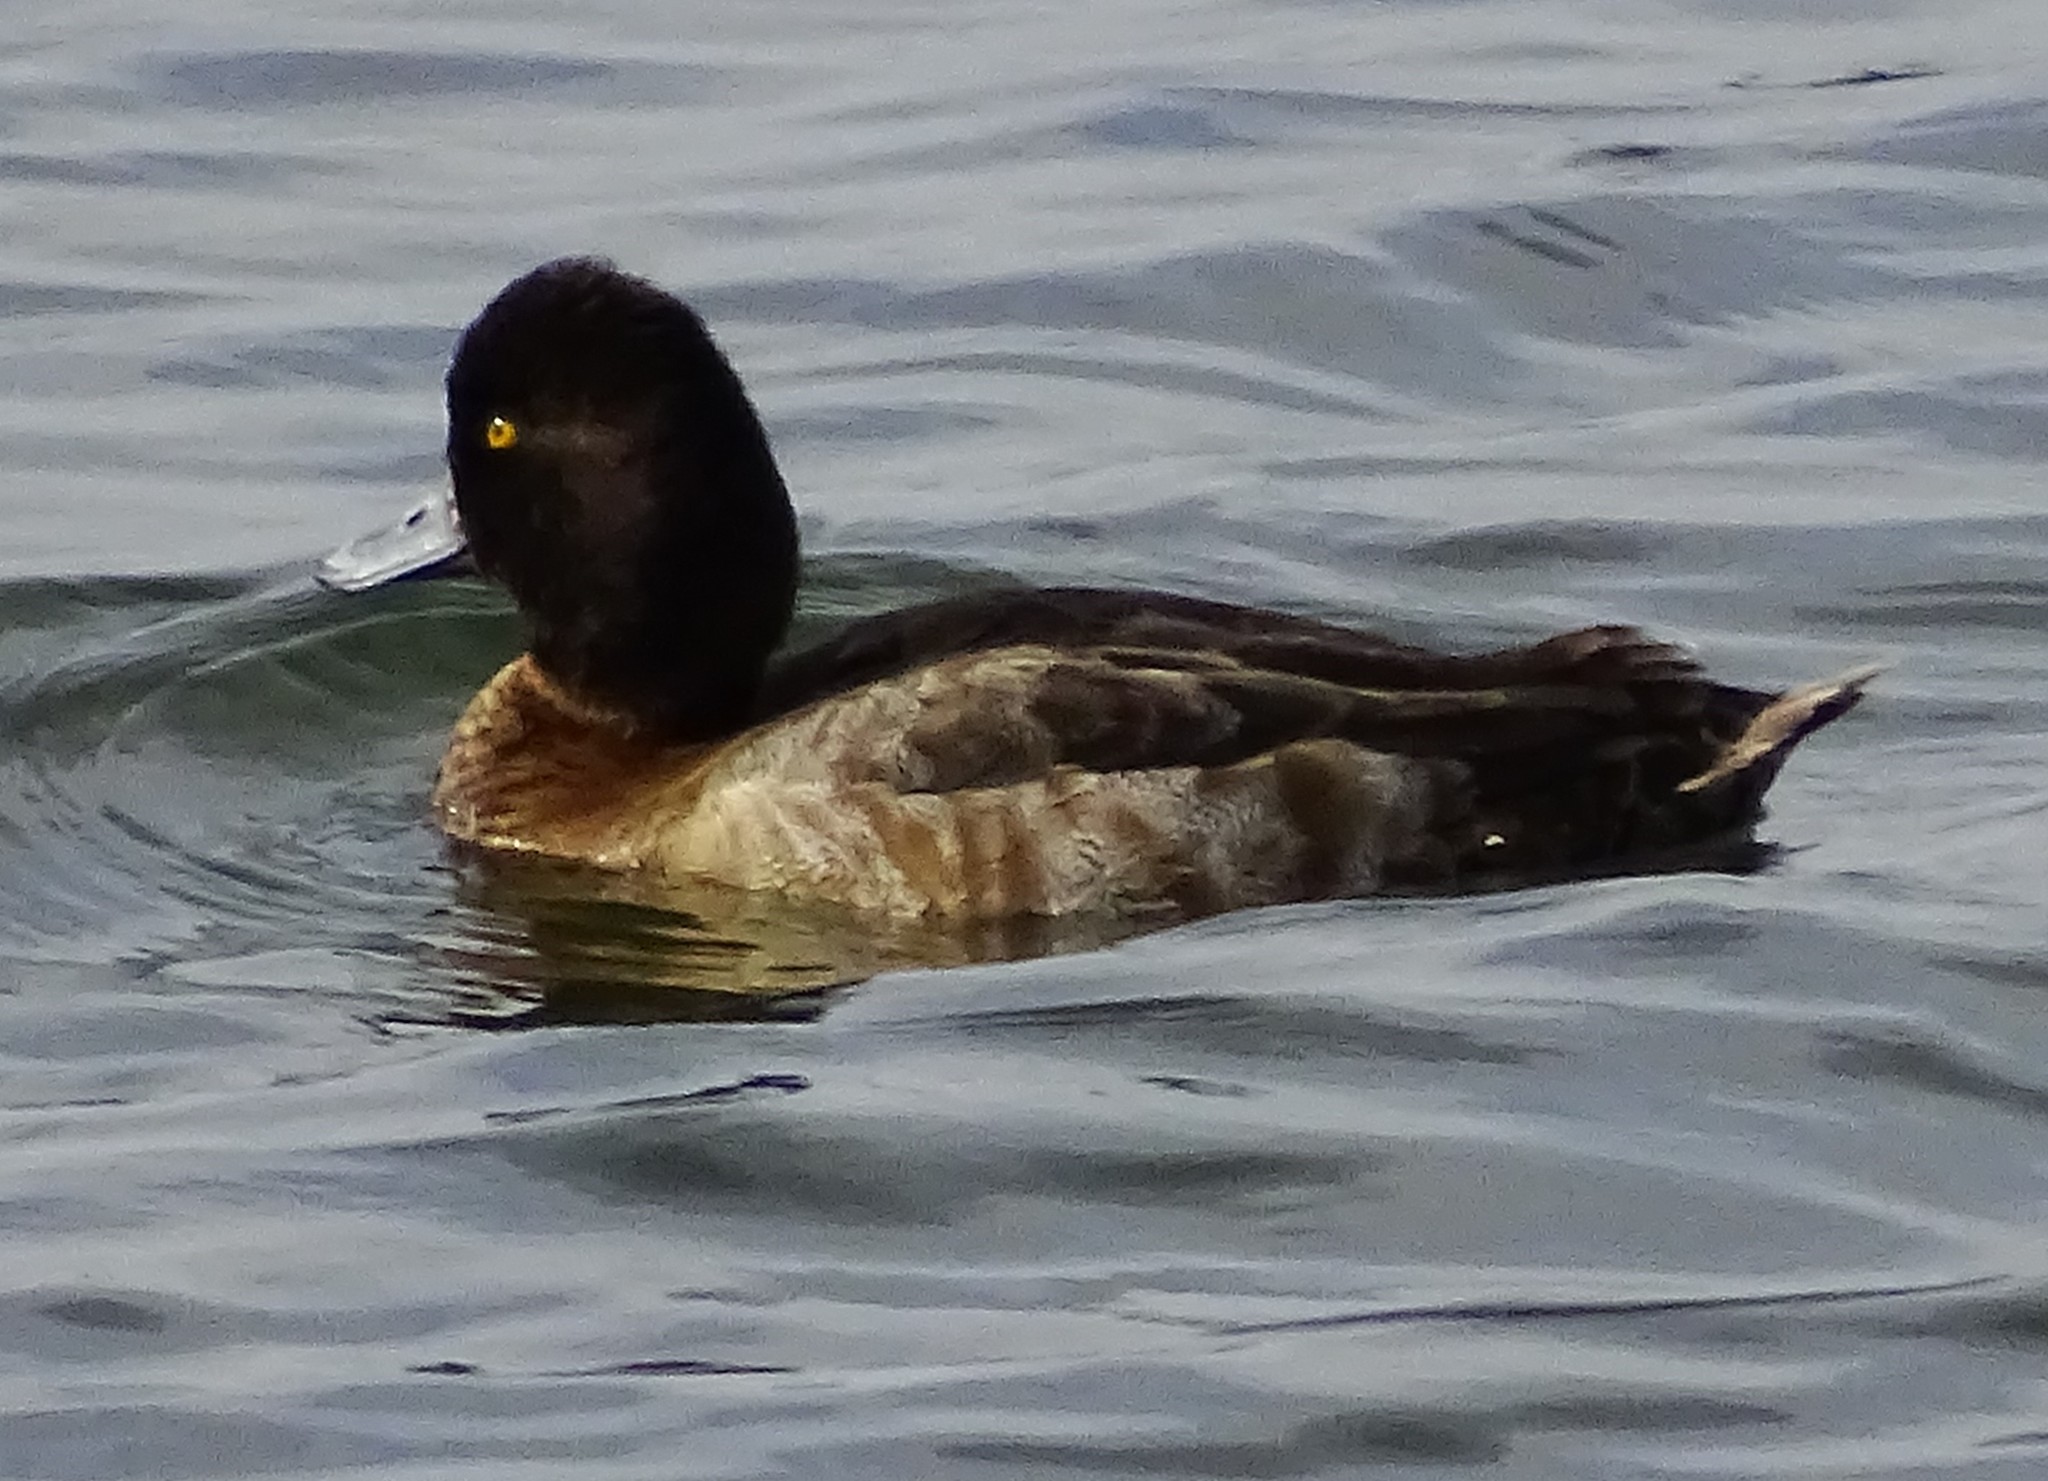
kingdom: Animalia
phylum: Chordata
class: Aves
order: Anseriformes
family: Anatidae
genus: Aythya
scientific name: Aythya affinis
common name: Lesser scaup
